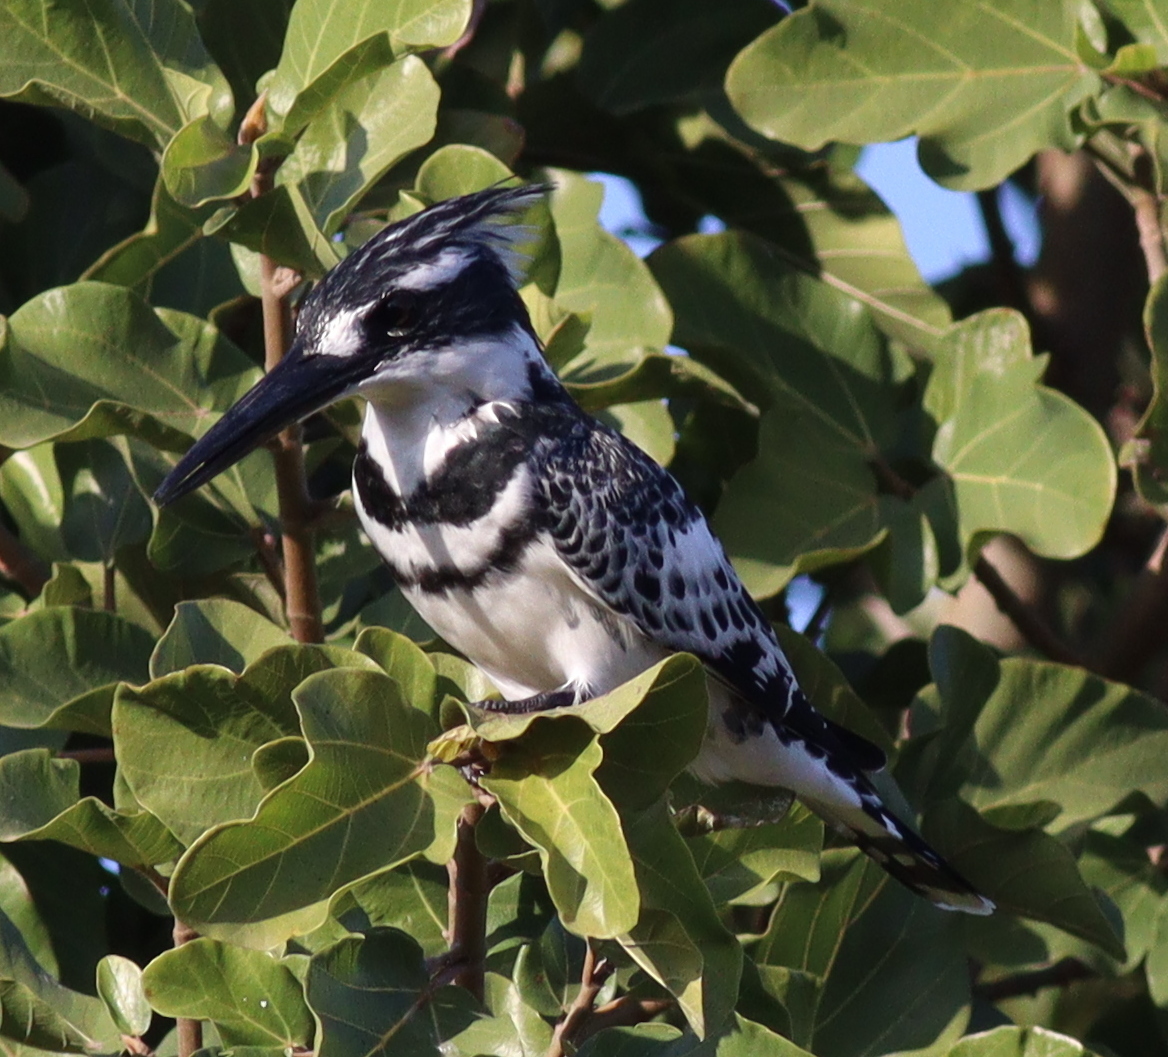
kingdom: Animalia
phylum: Chordata
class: Aves
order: Coraciiformes
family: Alcedinidae
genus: Ceryle
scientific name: Ceryle rudis
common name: Pied kingfisher
